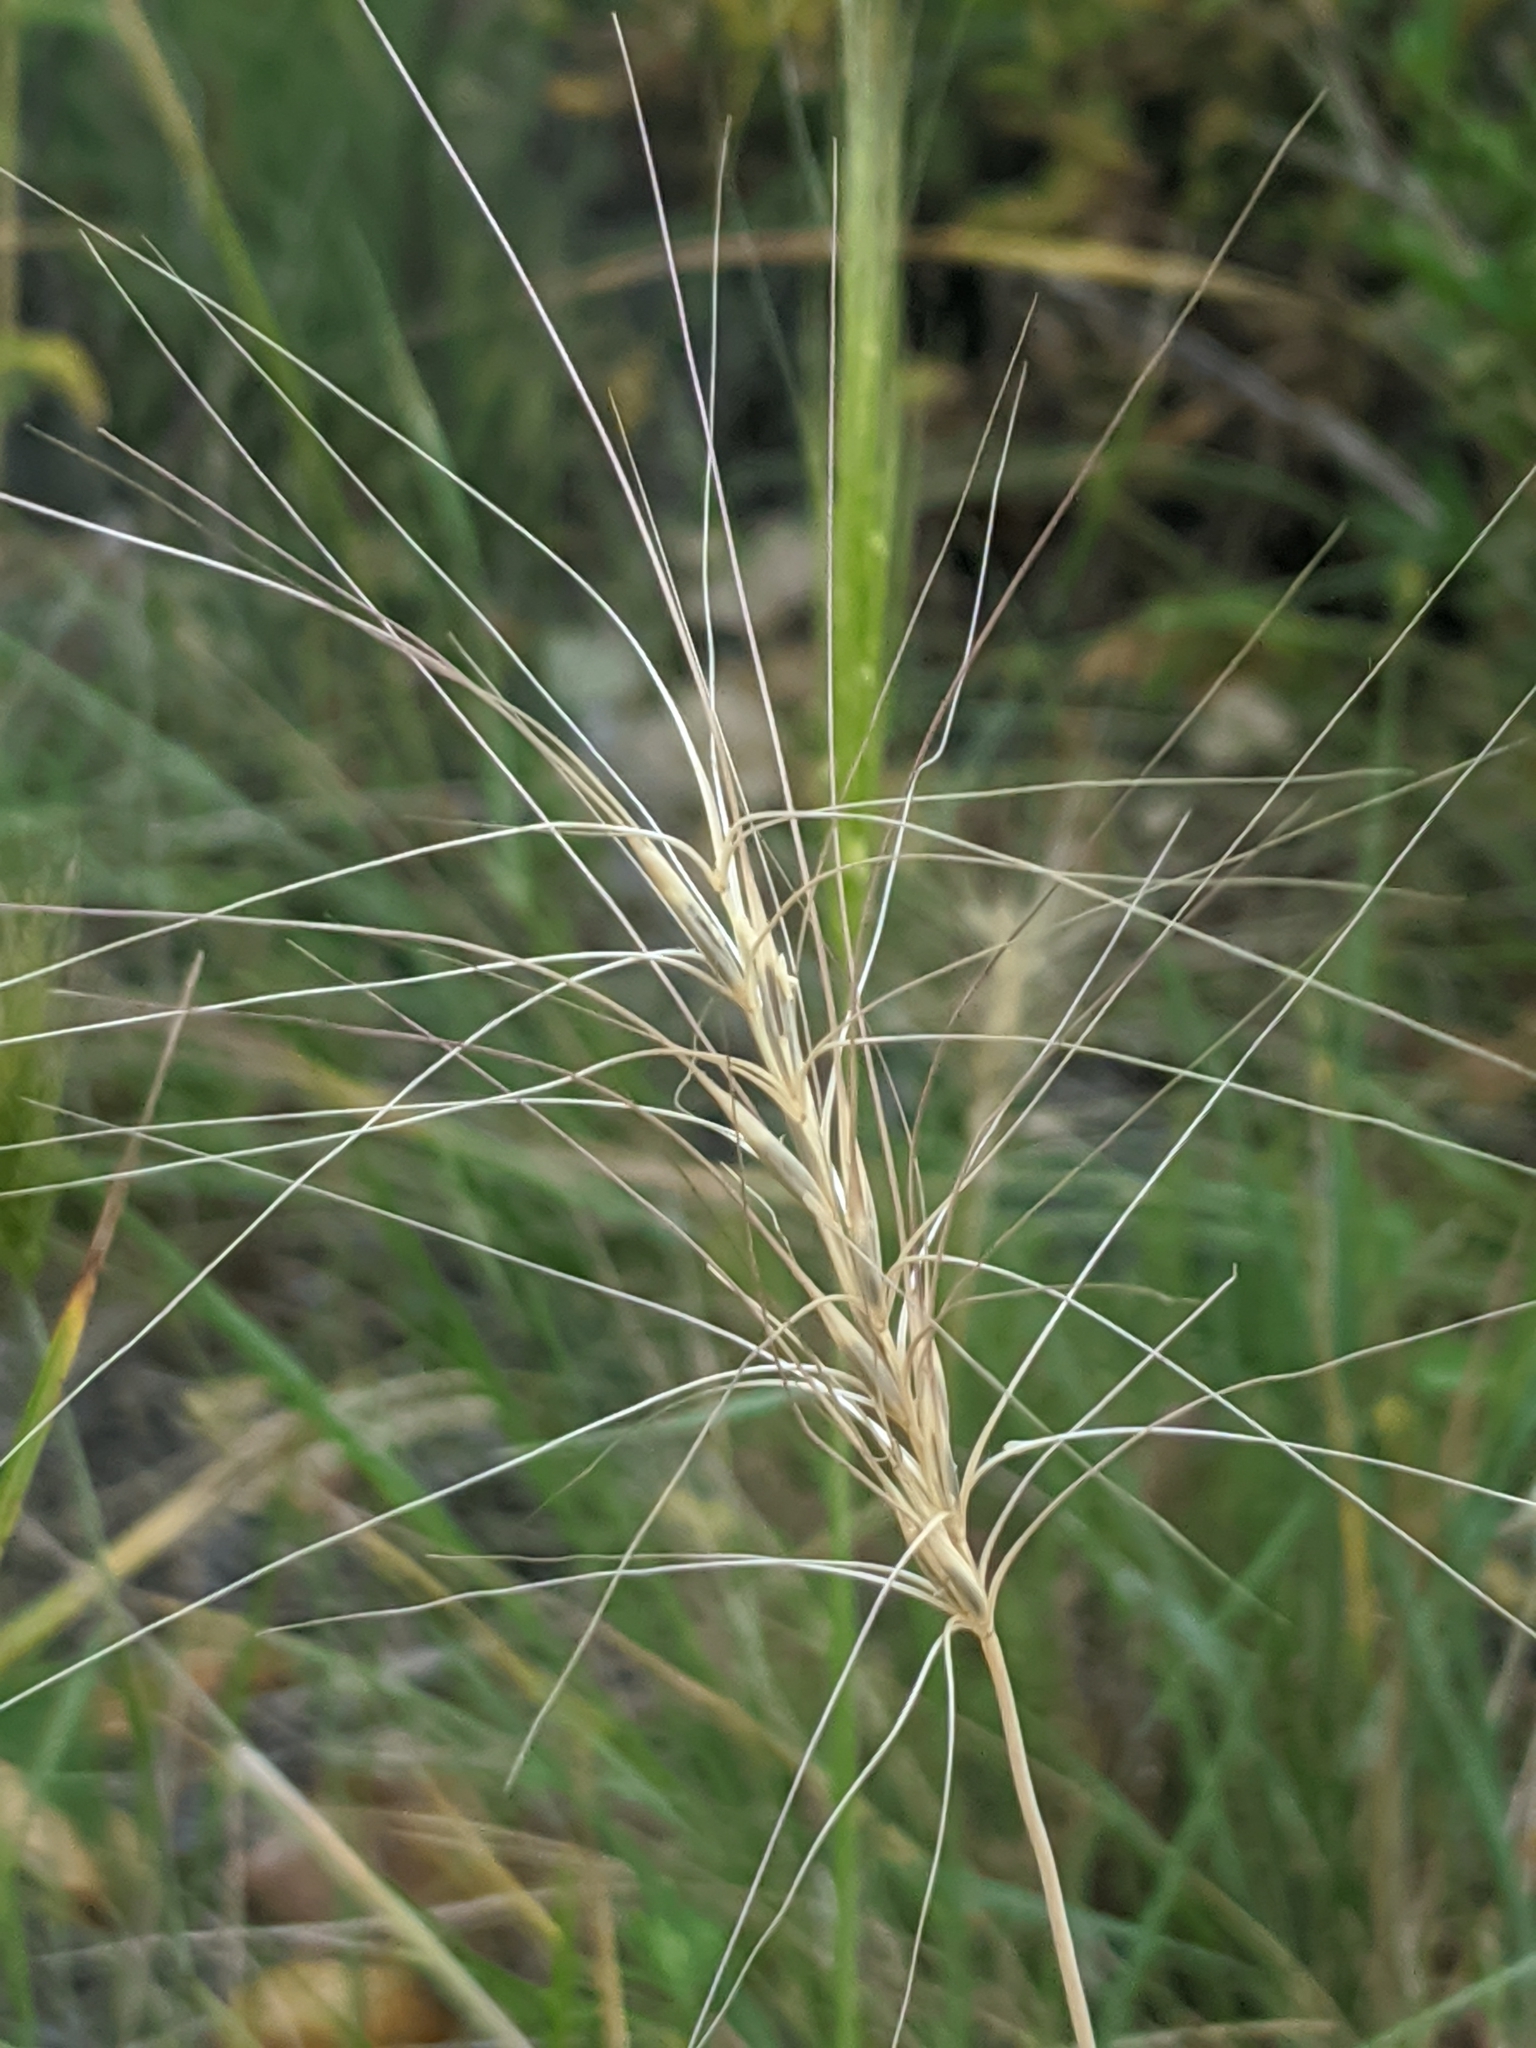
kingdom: Plantae
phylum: Tracheophyta
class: Liliopsida
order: Poales
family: Poaceae
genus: Elymus
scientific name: Elymus elymoides
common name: Bottlebrush squirreltail
